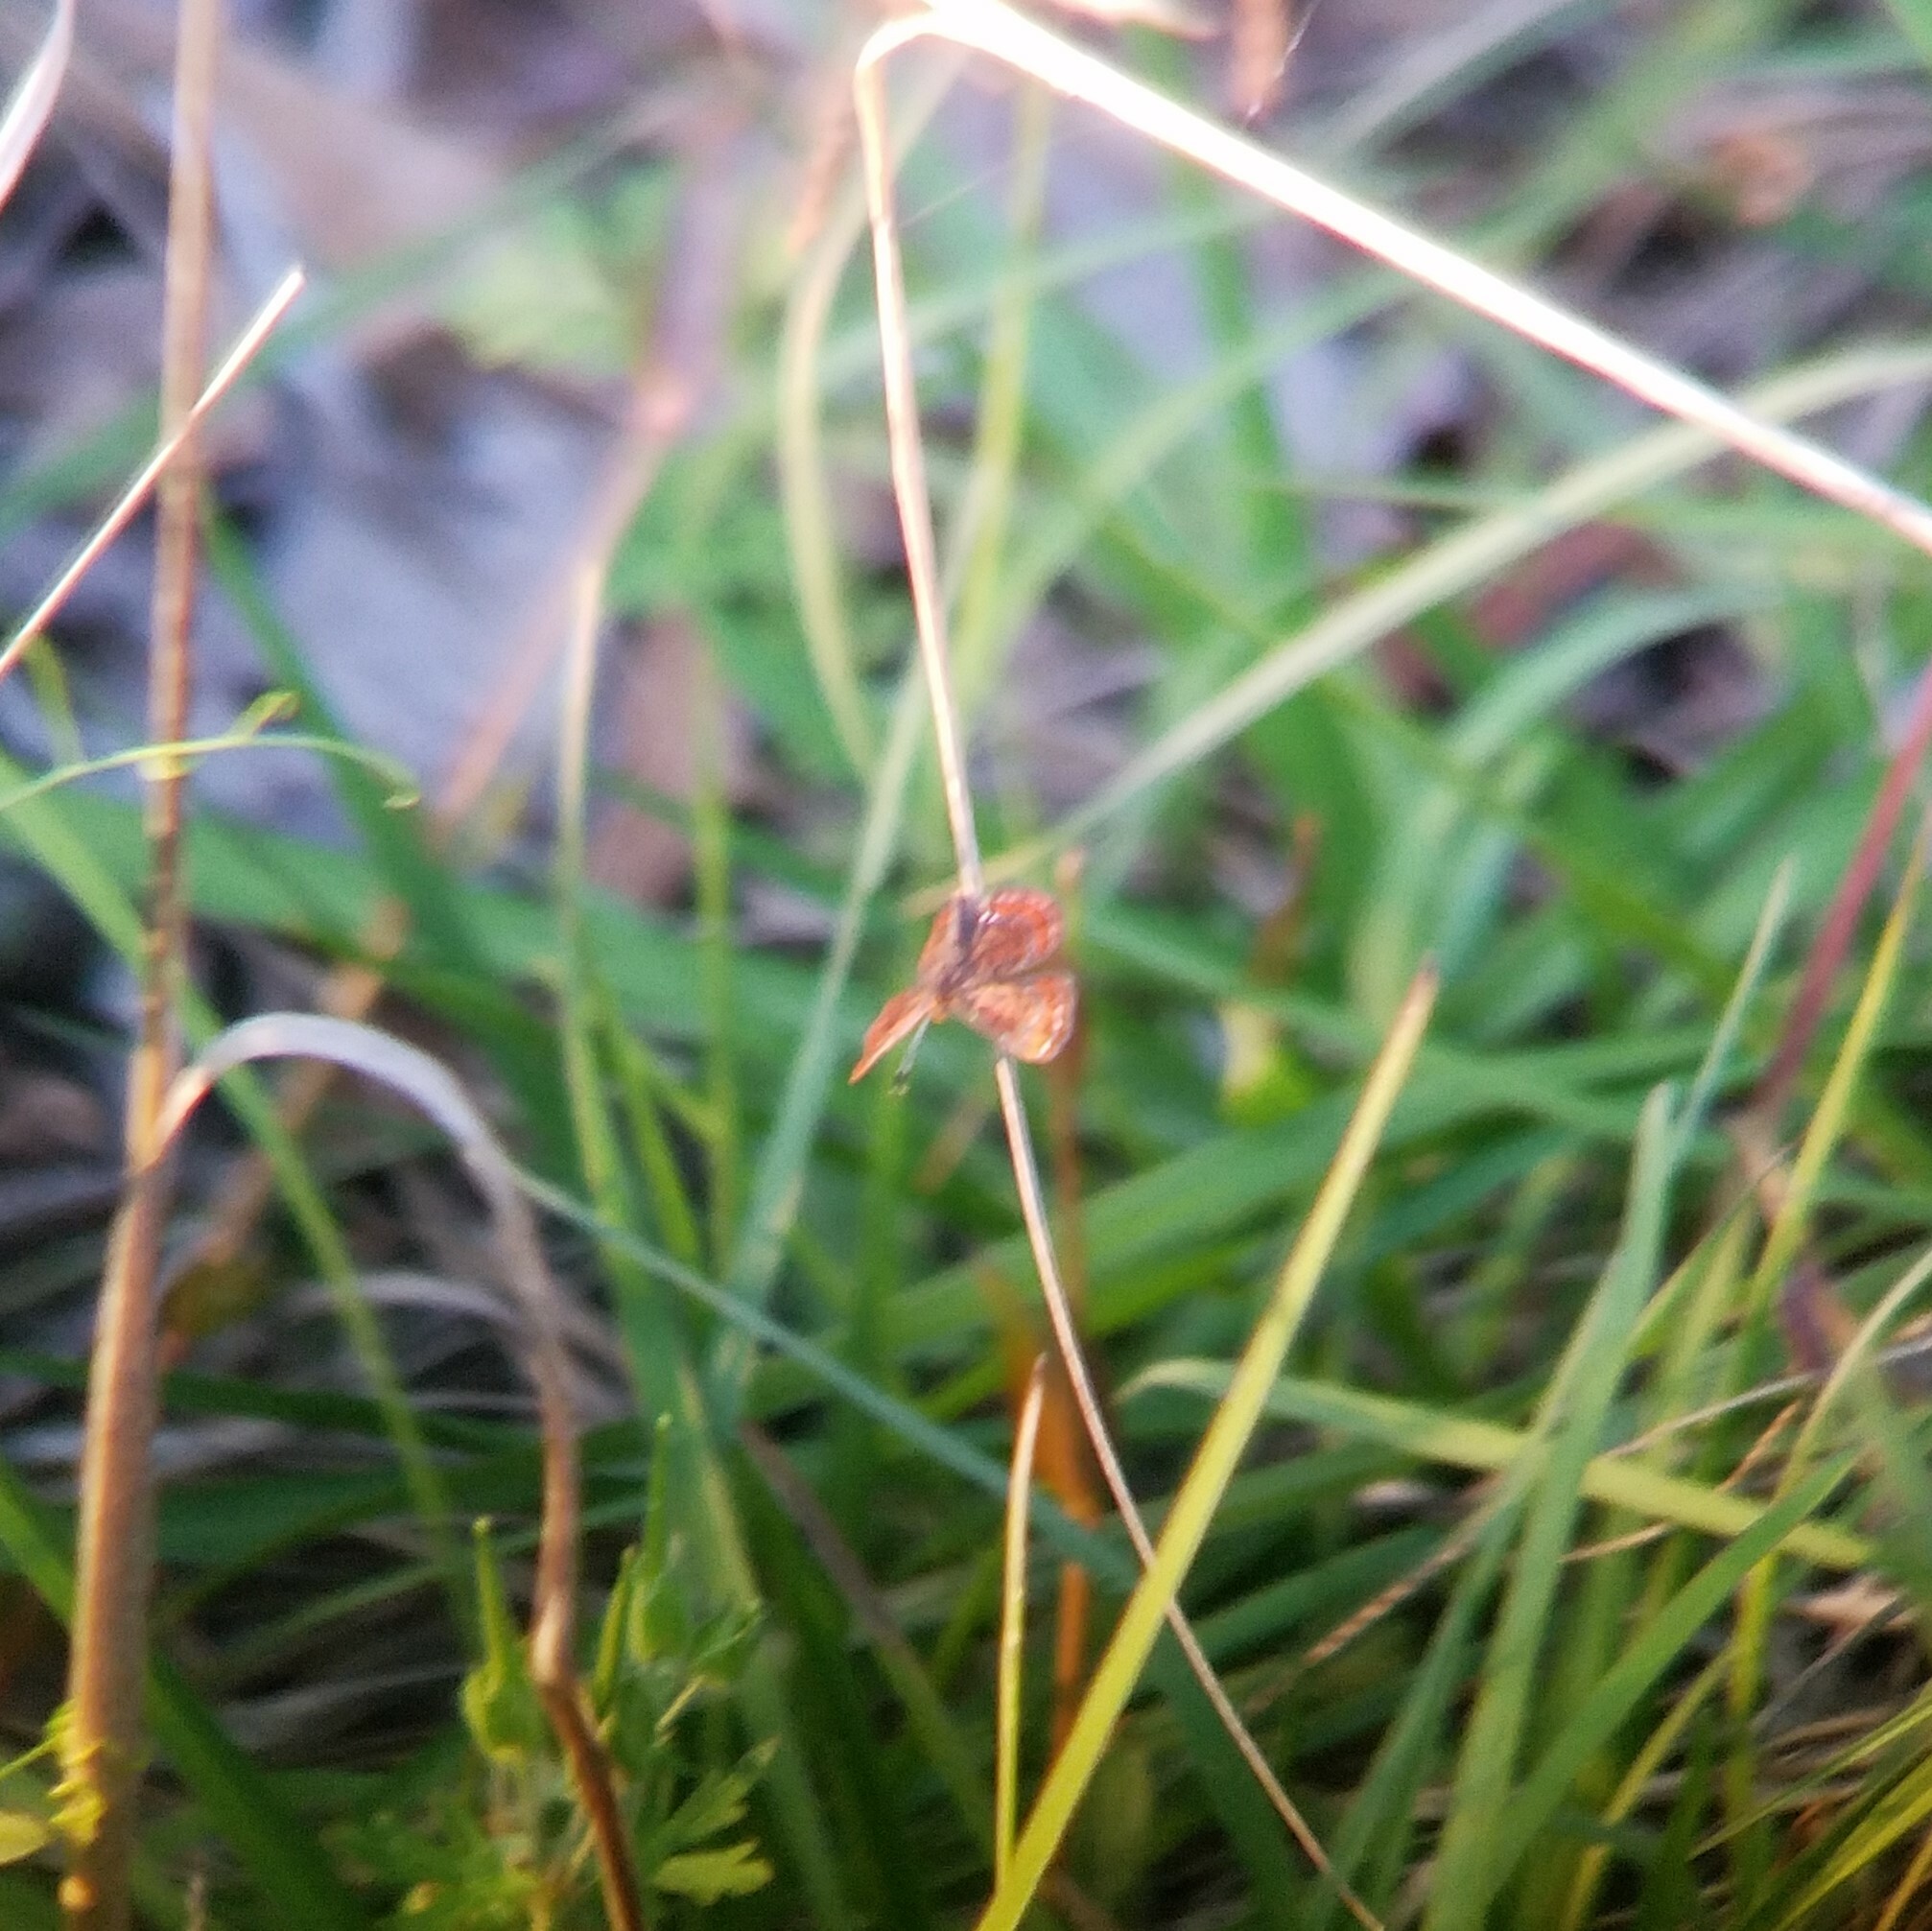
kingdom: Animalia
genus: Calephelis
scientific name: Calephelis virginiensis
